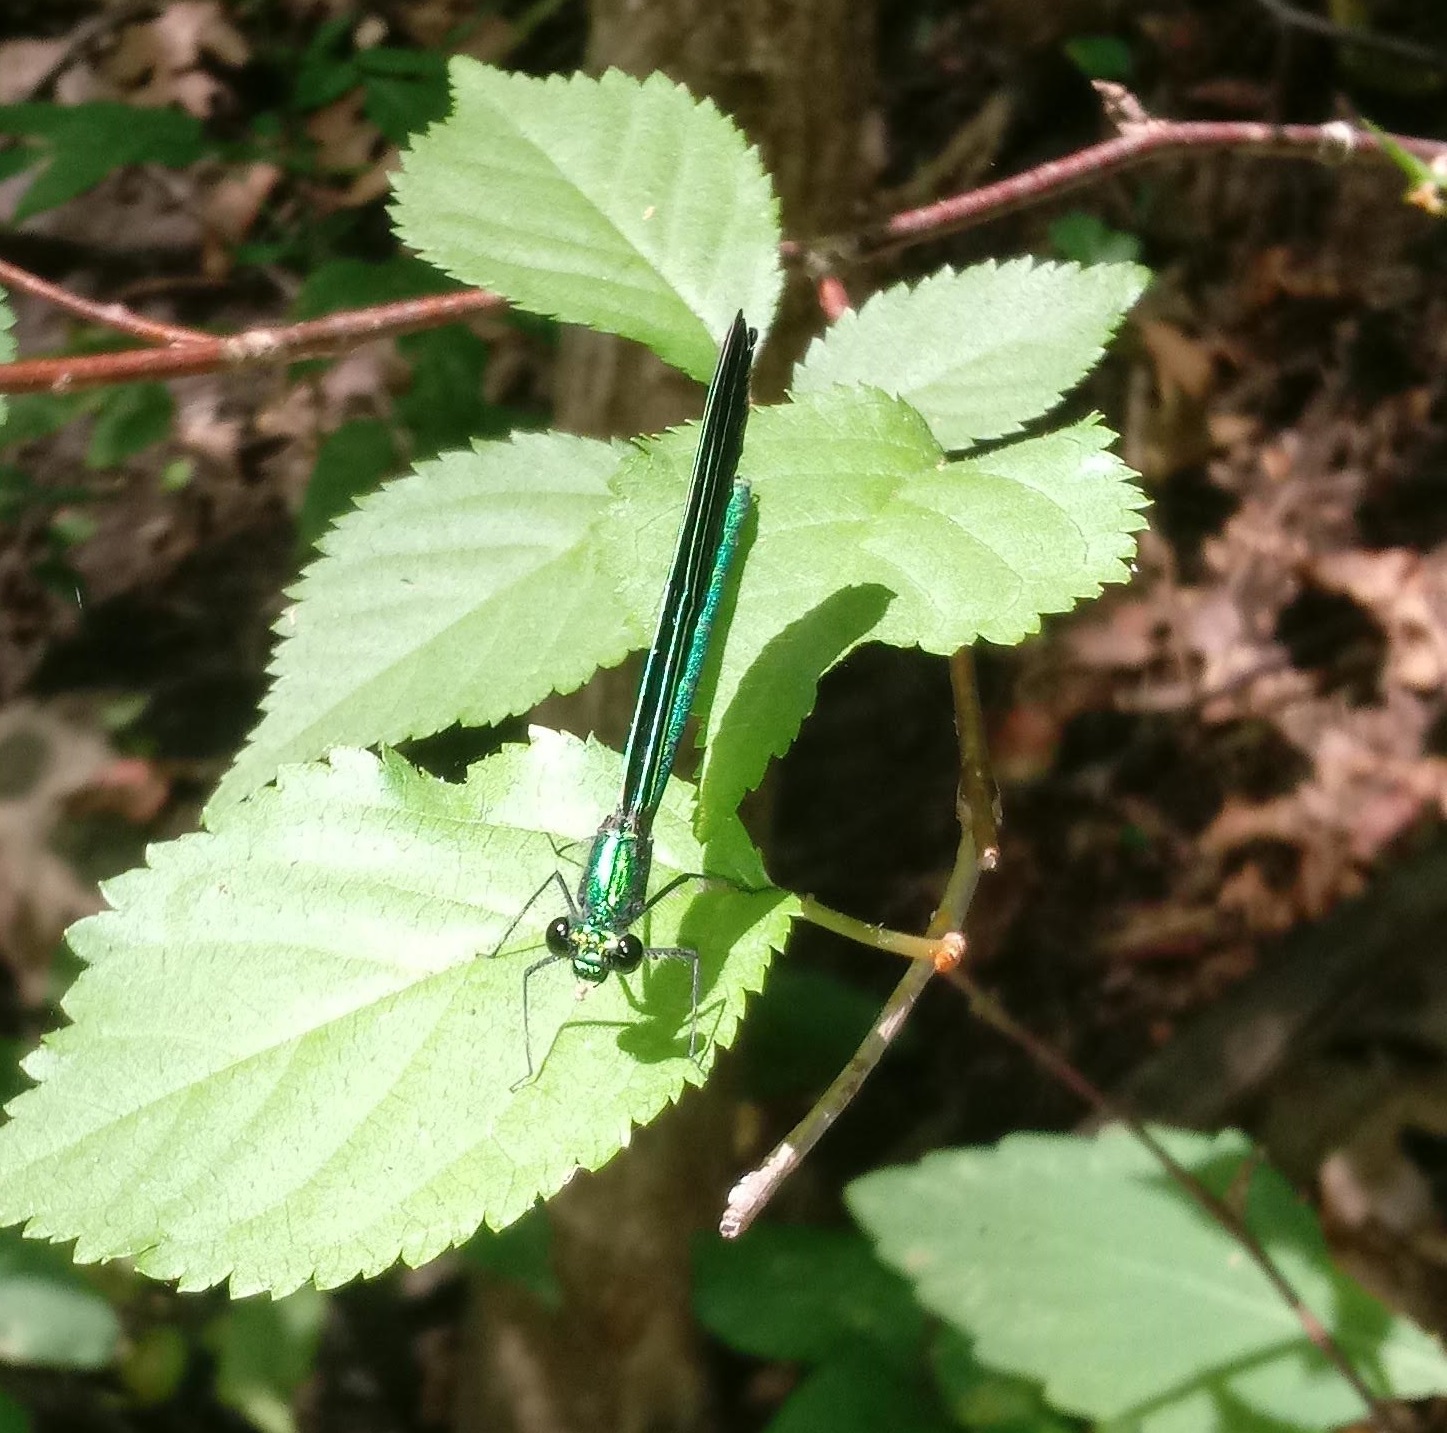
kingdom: Animalia
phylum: Arthropoda
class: Insecta
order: Odonata
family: Calopterygidae
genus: Calopteryx
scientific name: Calopteryx maculata
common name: Ebony jewelwing
